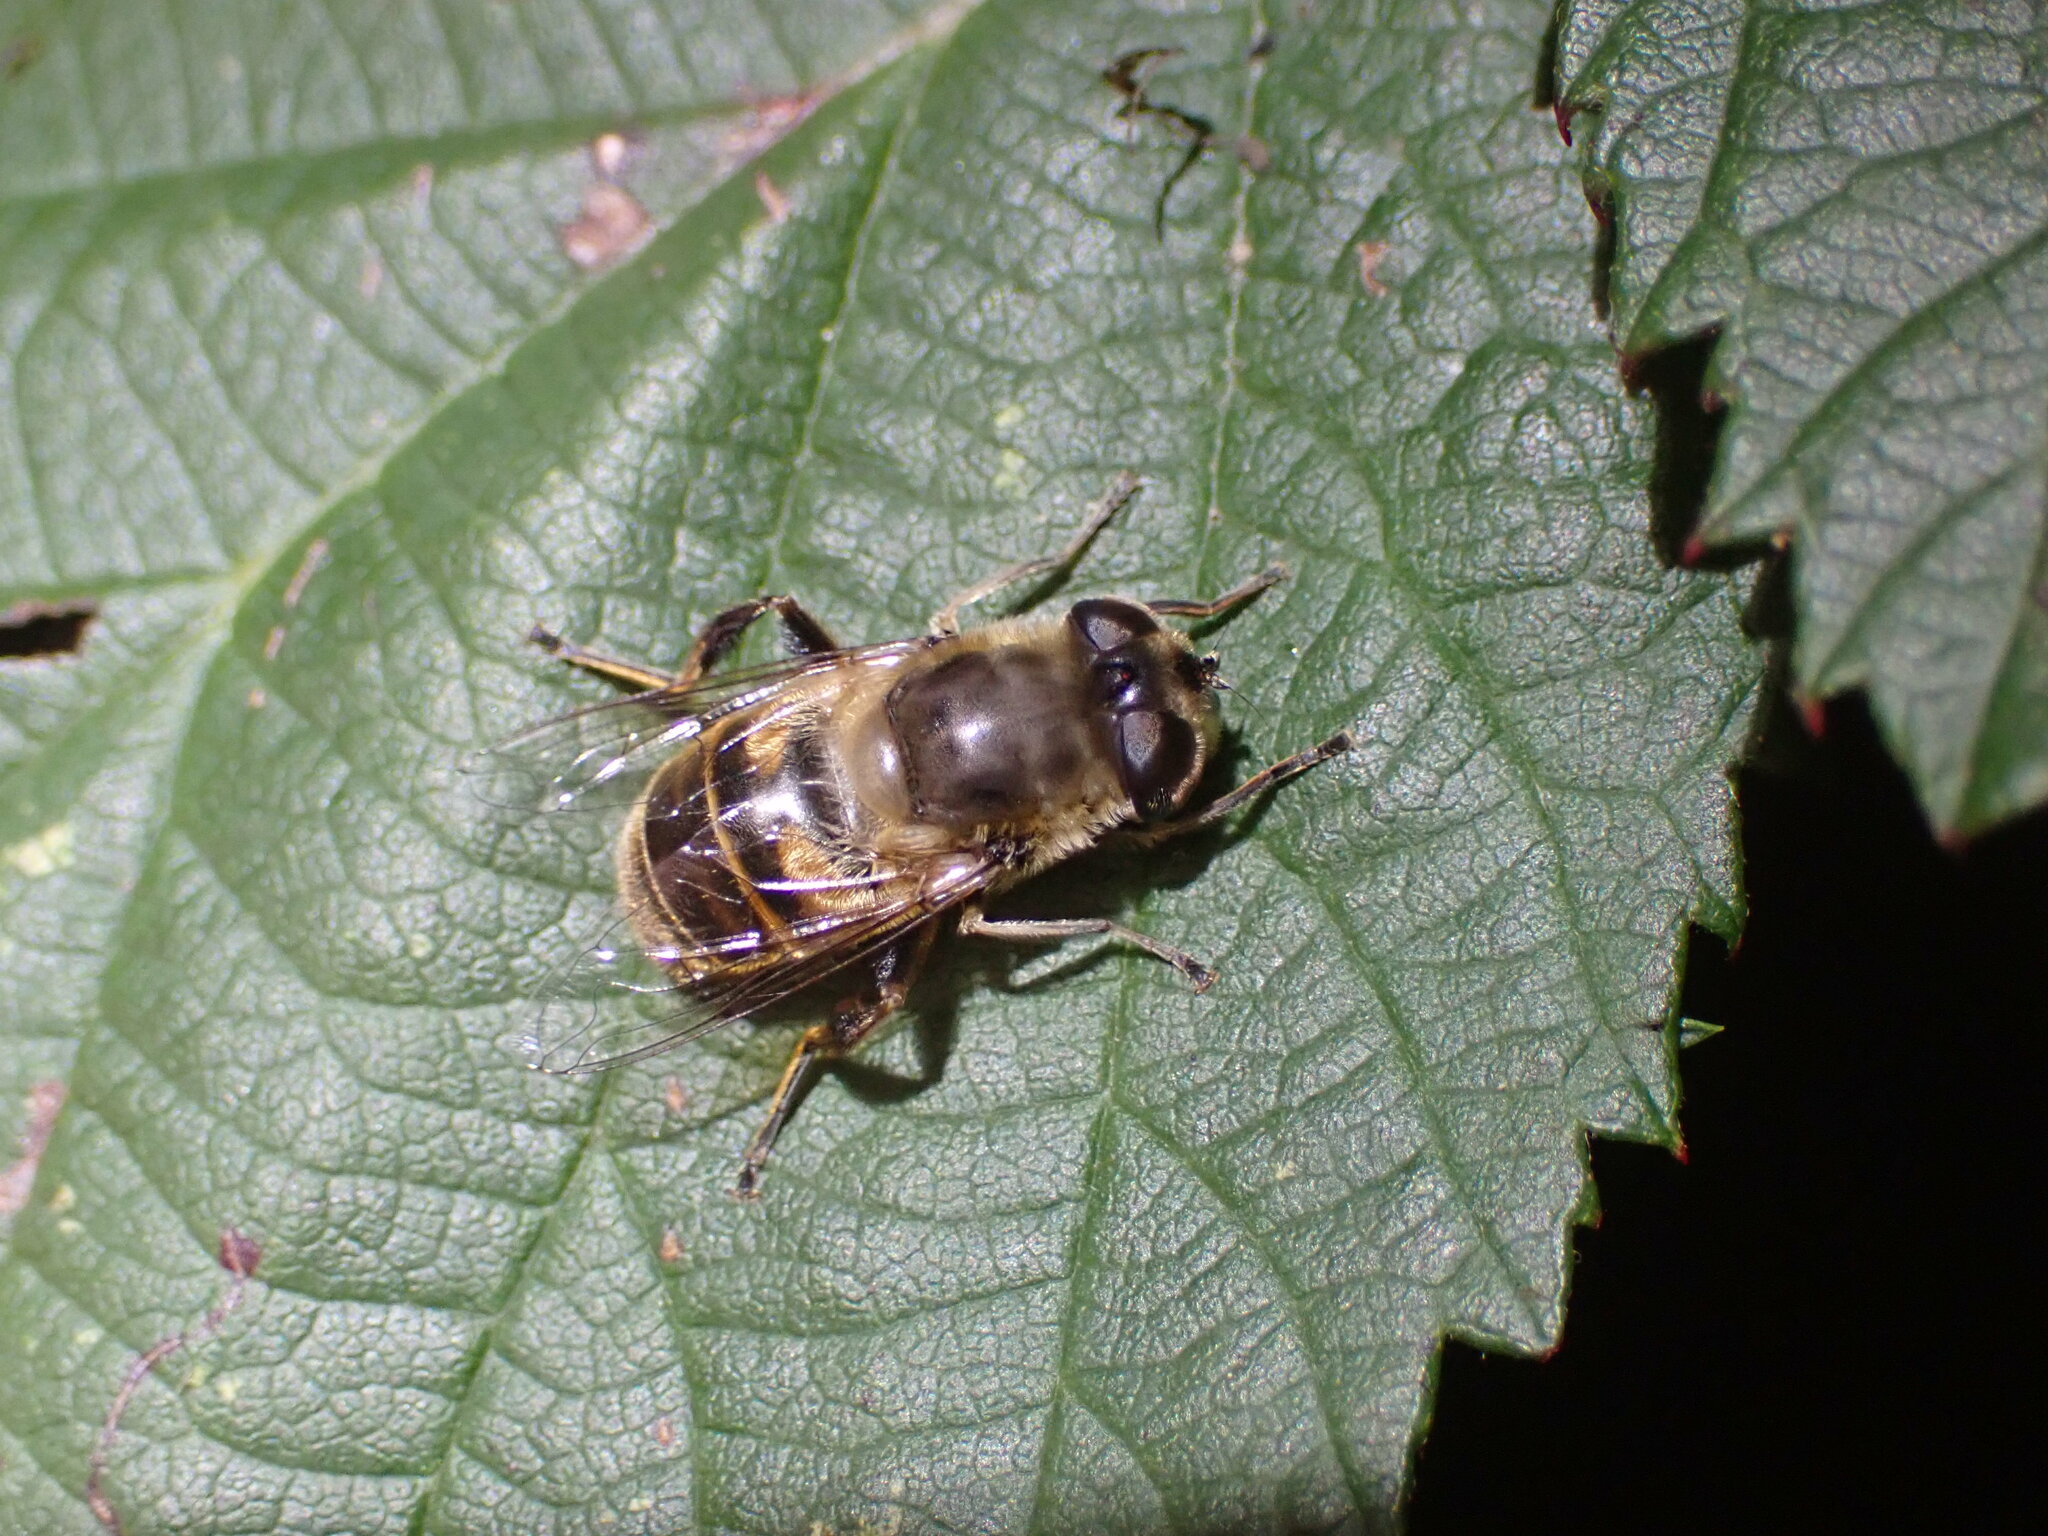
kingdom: Animalia
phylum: Arthropoda
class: Insecta
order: Diptera
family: Syrphidae
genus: Eristalis
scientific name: Eristalis tenax
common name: Drone fly
